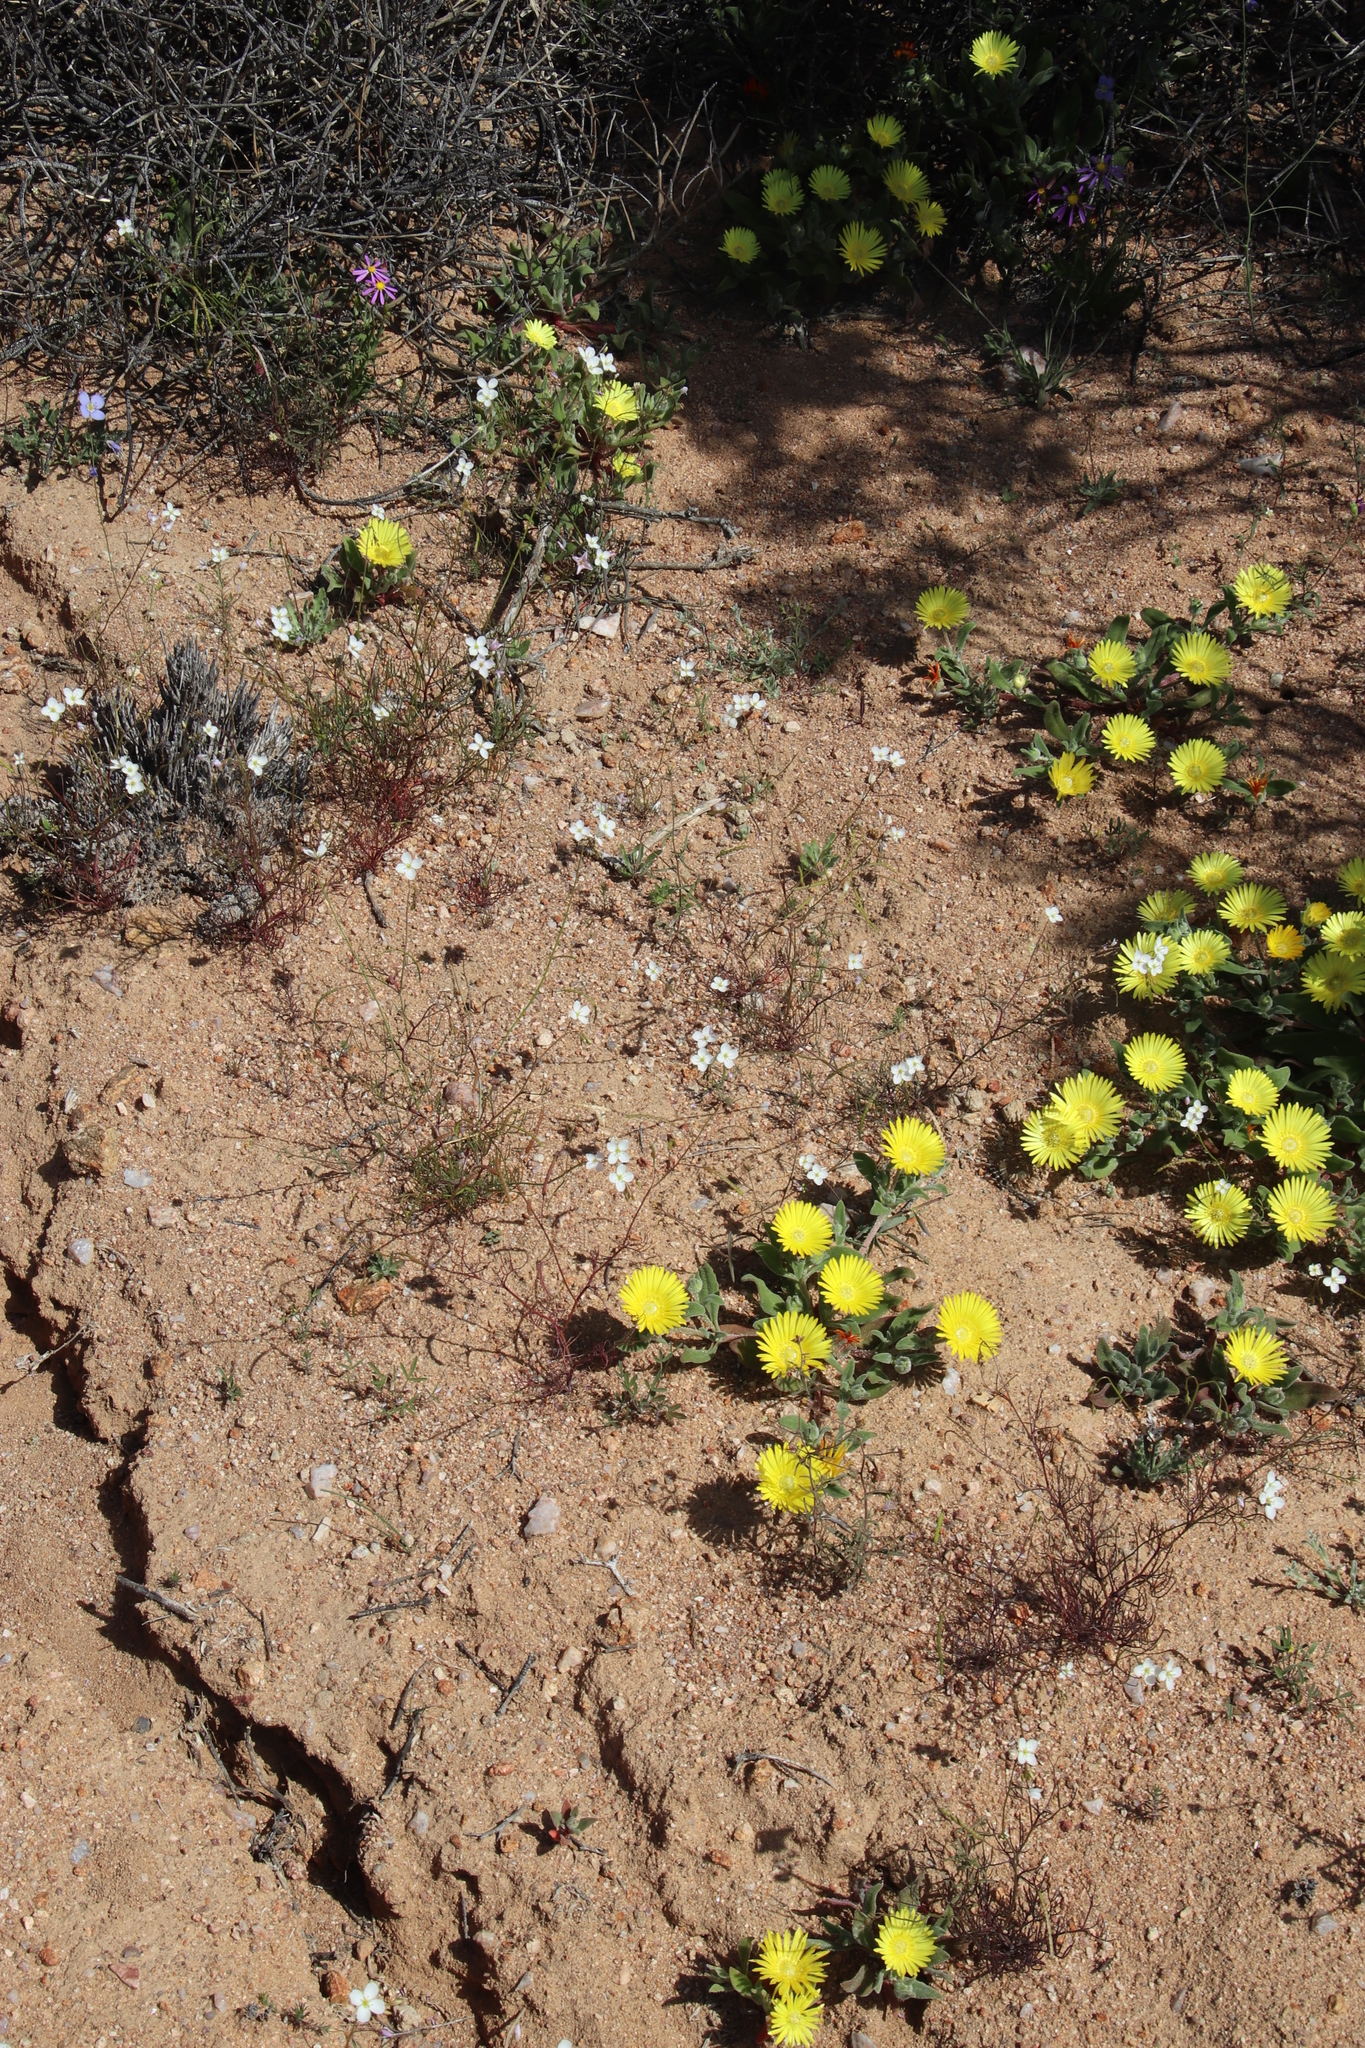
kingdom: Plantae
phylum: Tracheophyta
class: Magnoliopsida
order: Brassicales
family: Brassicaceae
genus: Heliophila
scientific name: Heliophila variabilis
